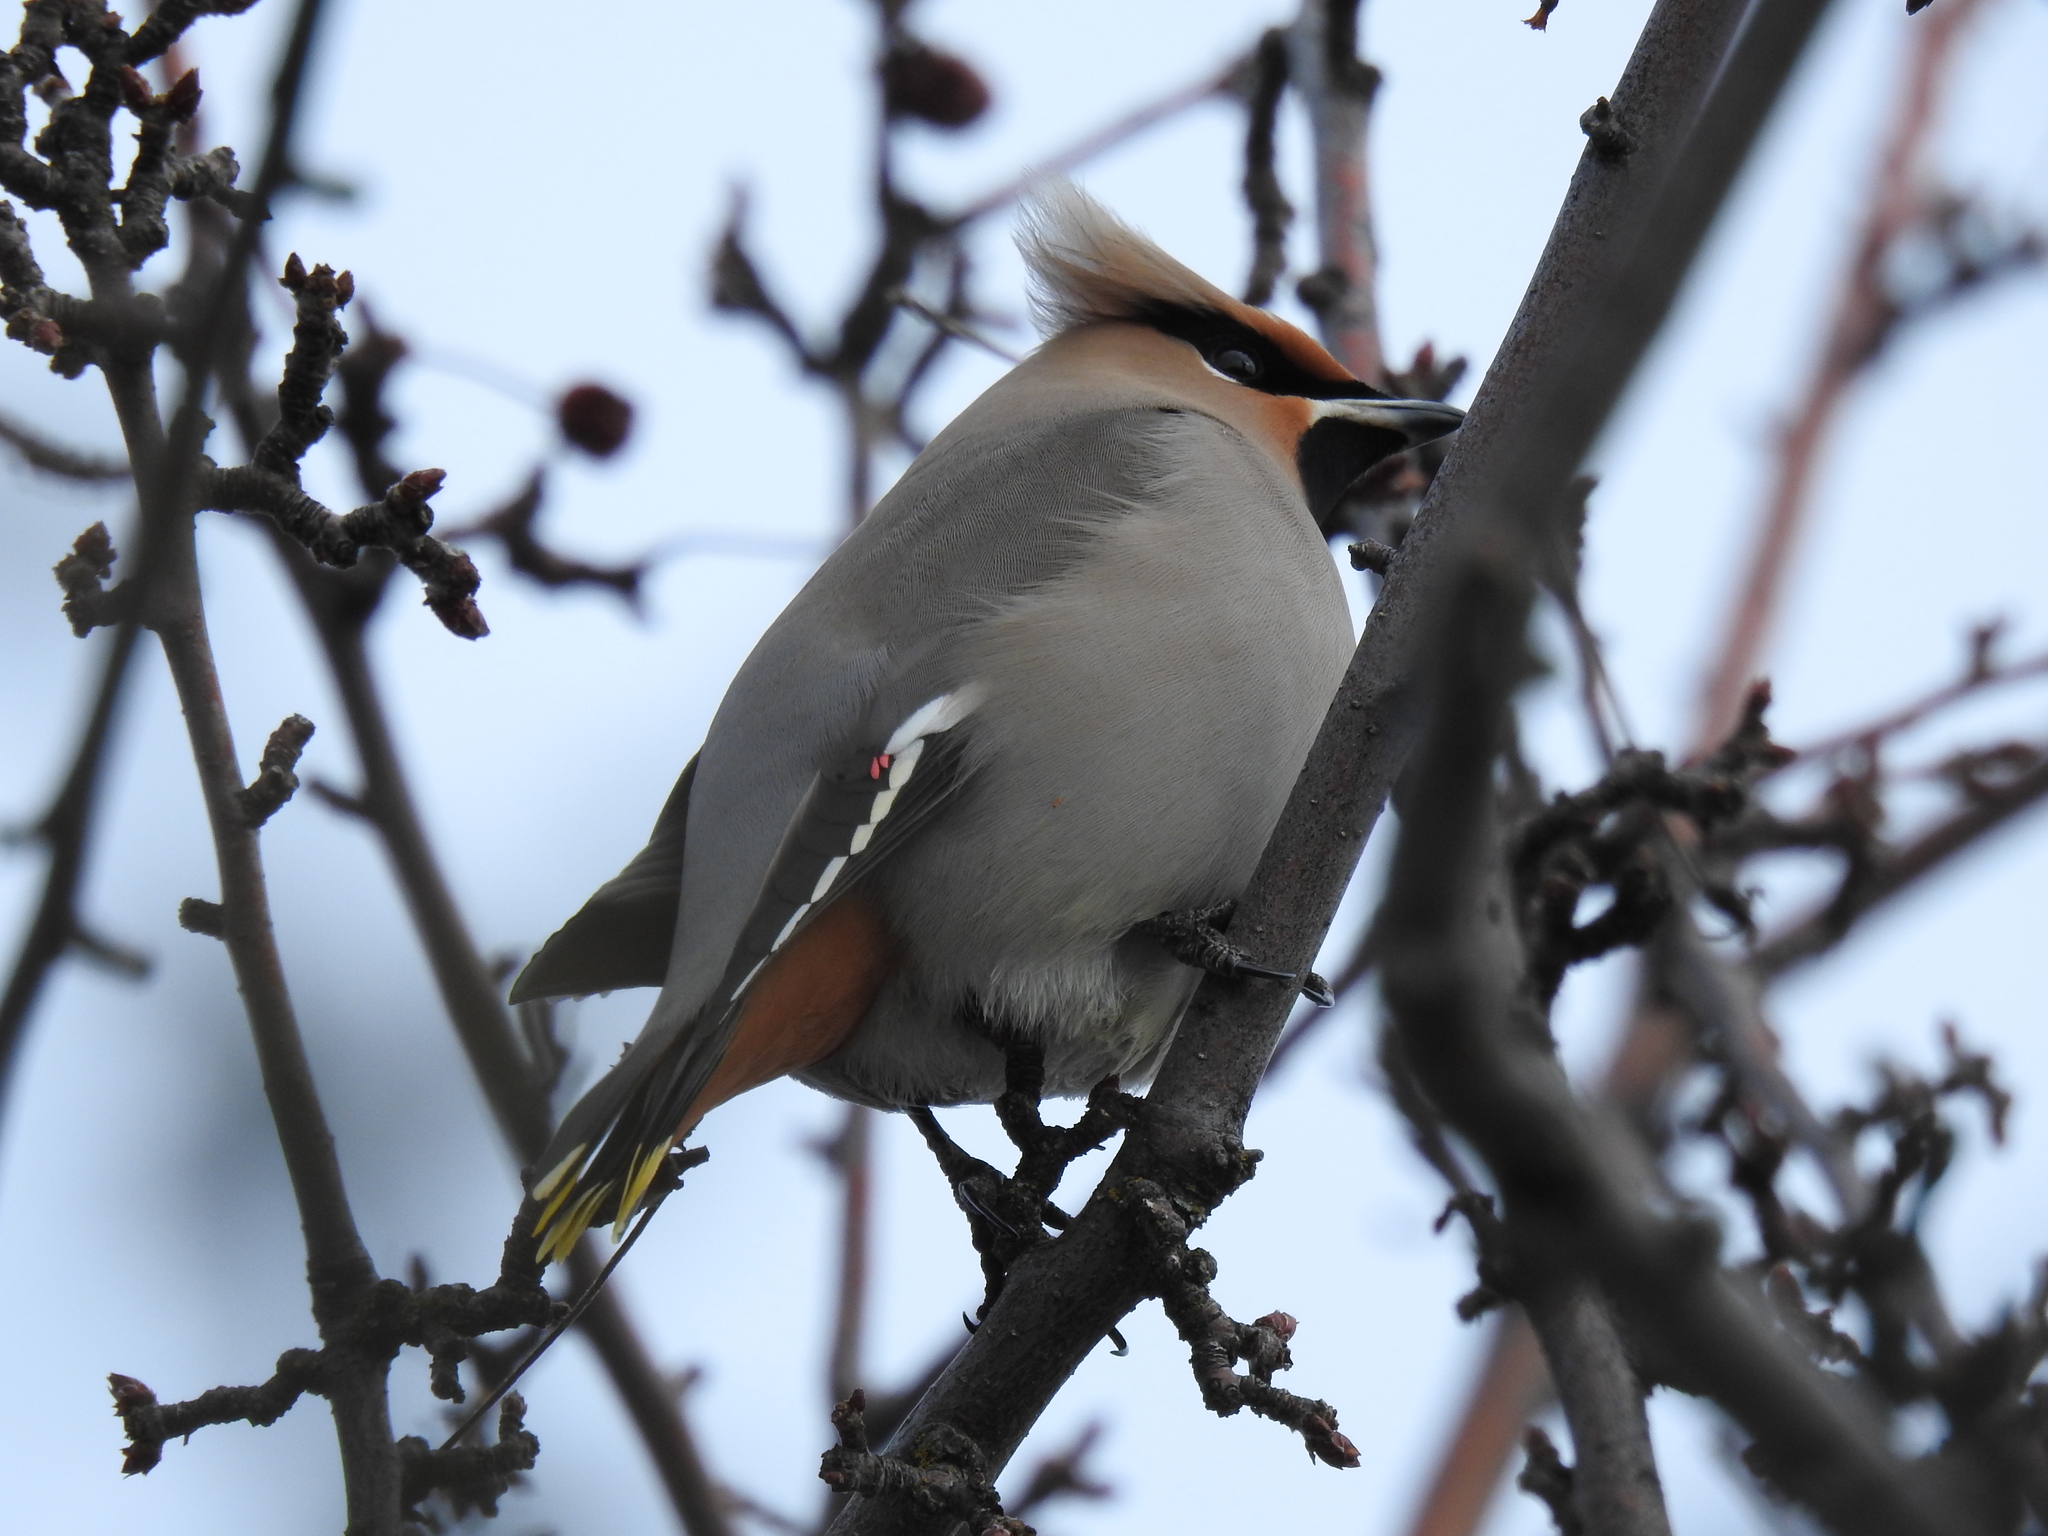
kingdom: Animalia
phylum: Chordata
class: Aves
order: Passeriformes
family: Bombycillidae
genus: Bombycilla
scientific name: Bombycilla garrulus
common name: Bohemian waxwing
